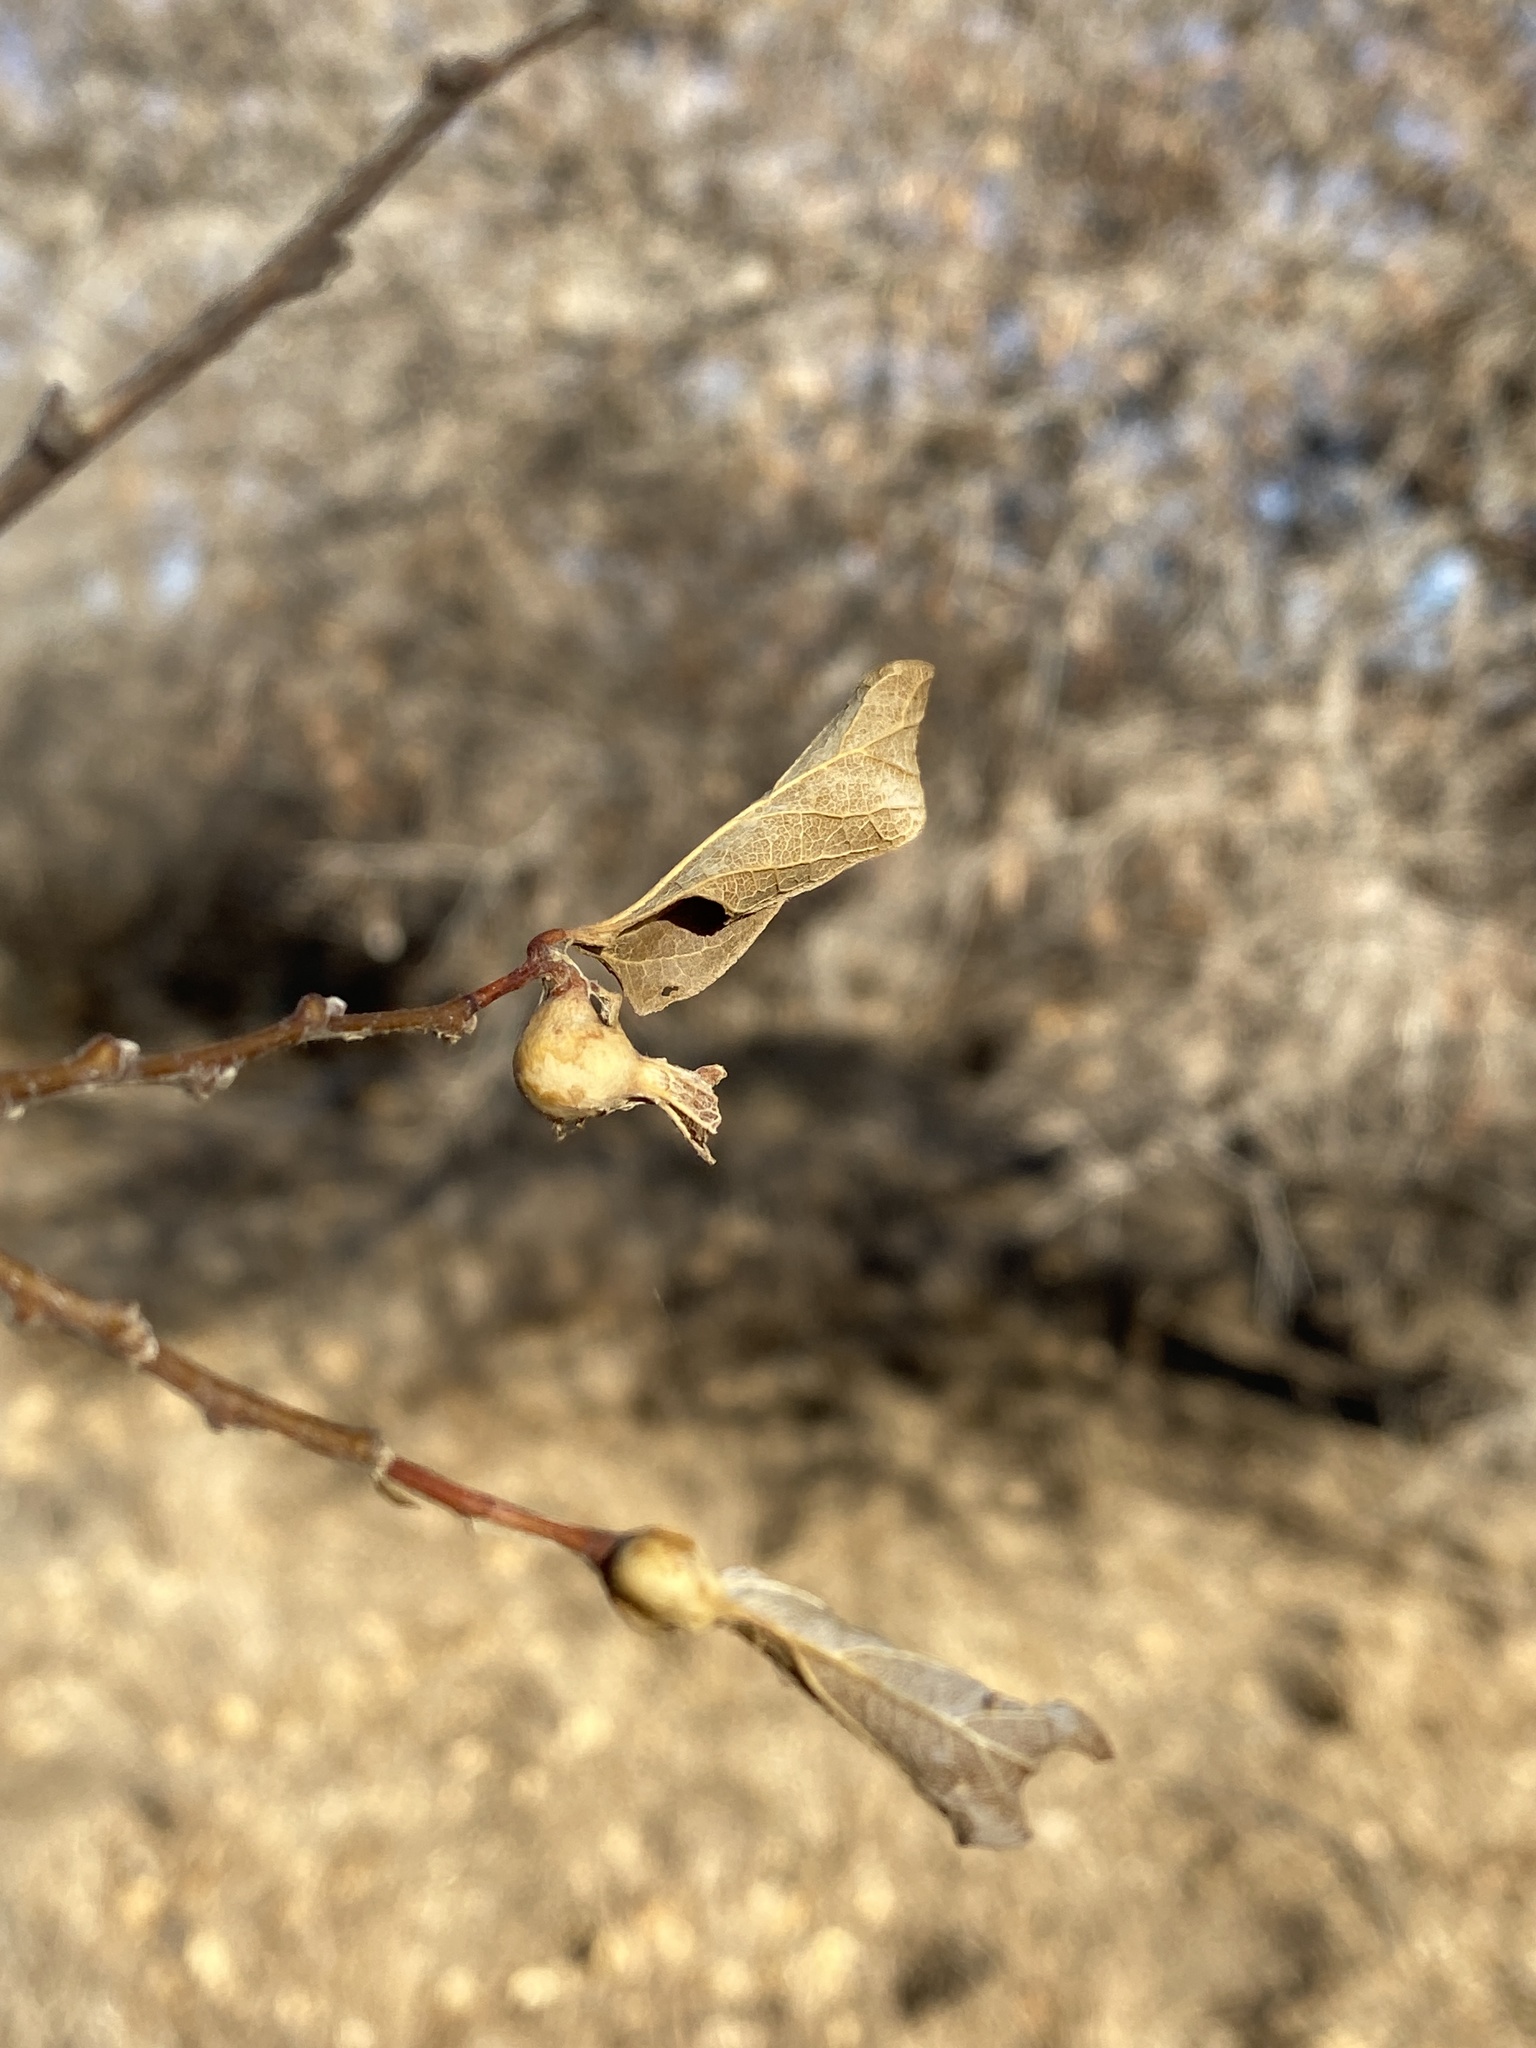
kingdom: Animalia
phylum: Arthropoda
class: Insecta
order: Hemiptera
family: Aphalaridae
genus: Pachypsylla
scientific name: Pachypsylla venusta
